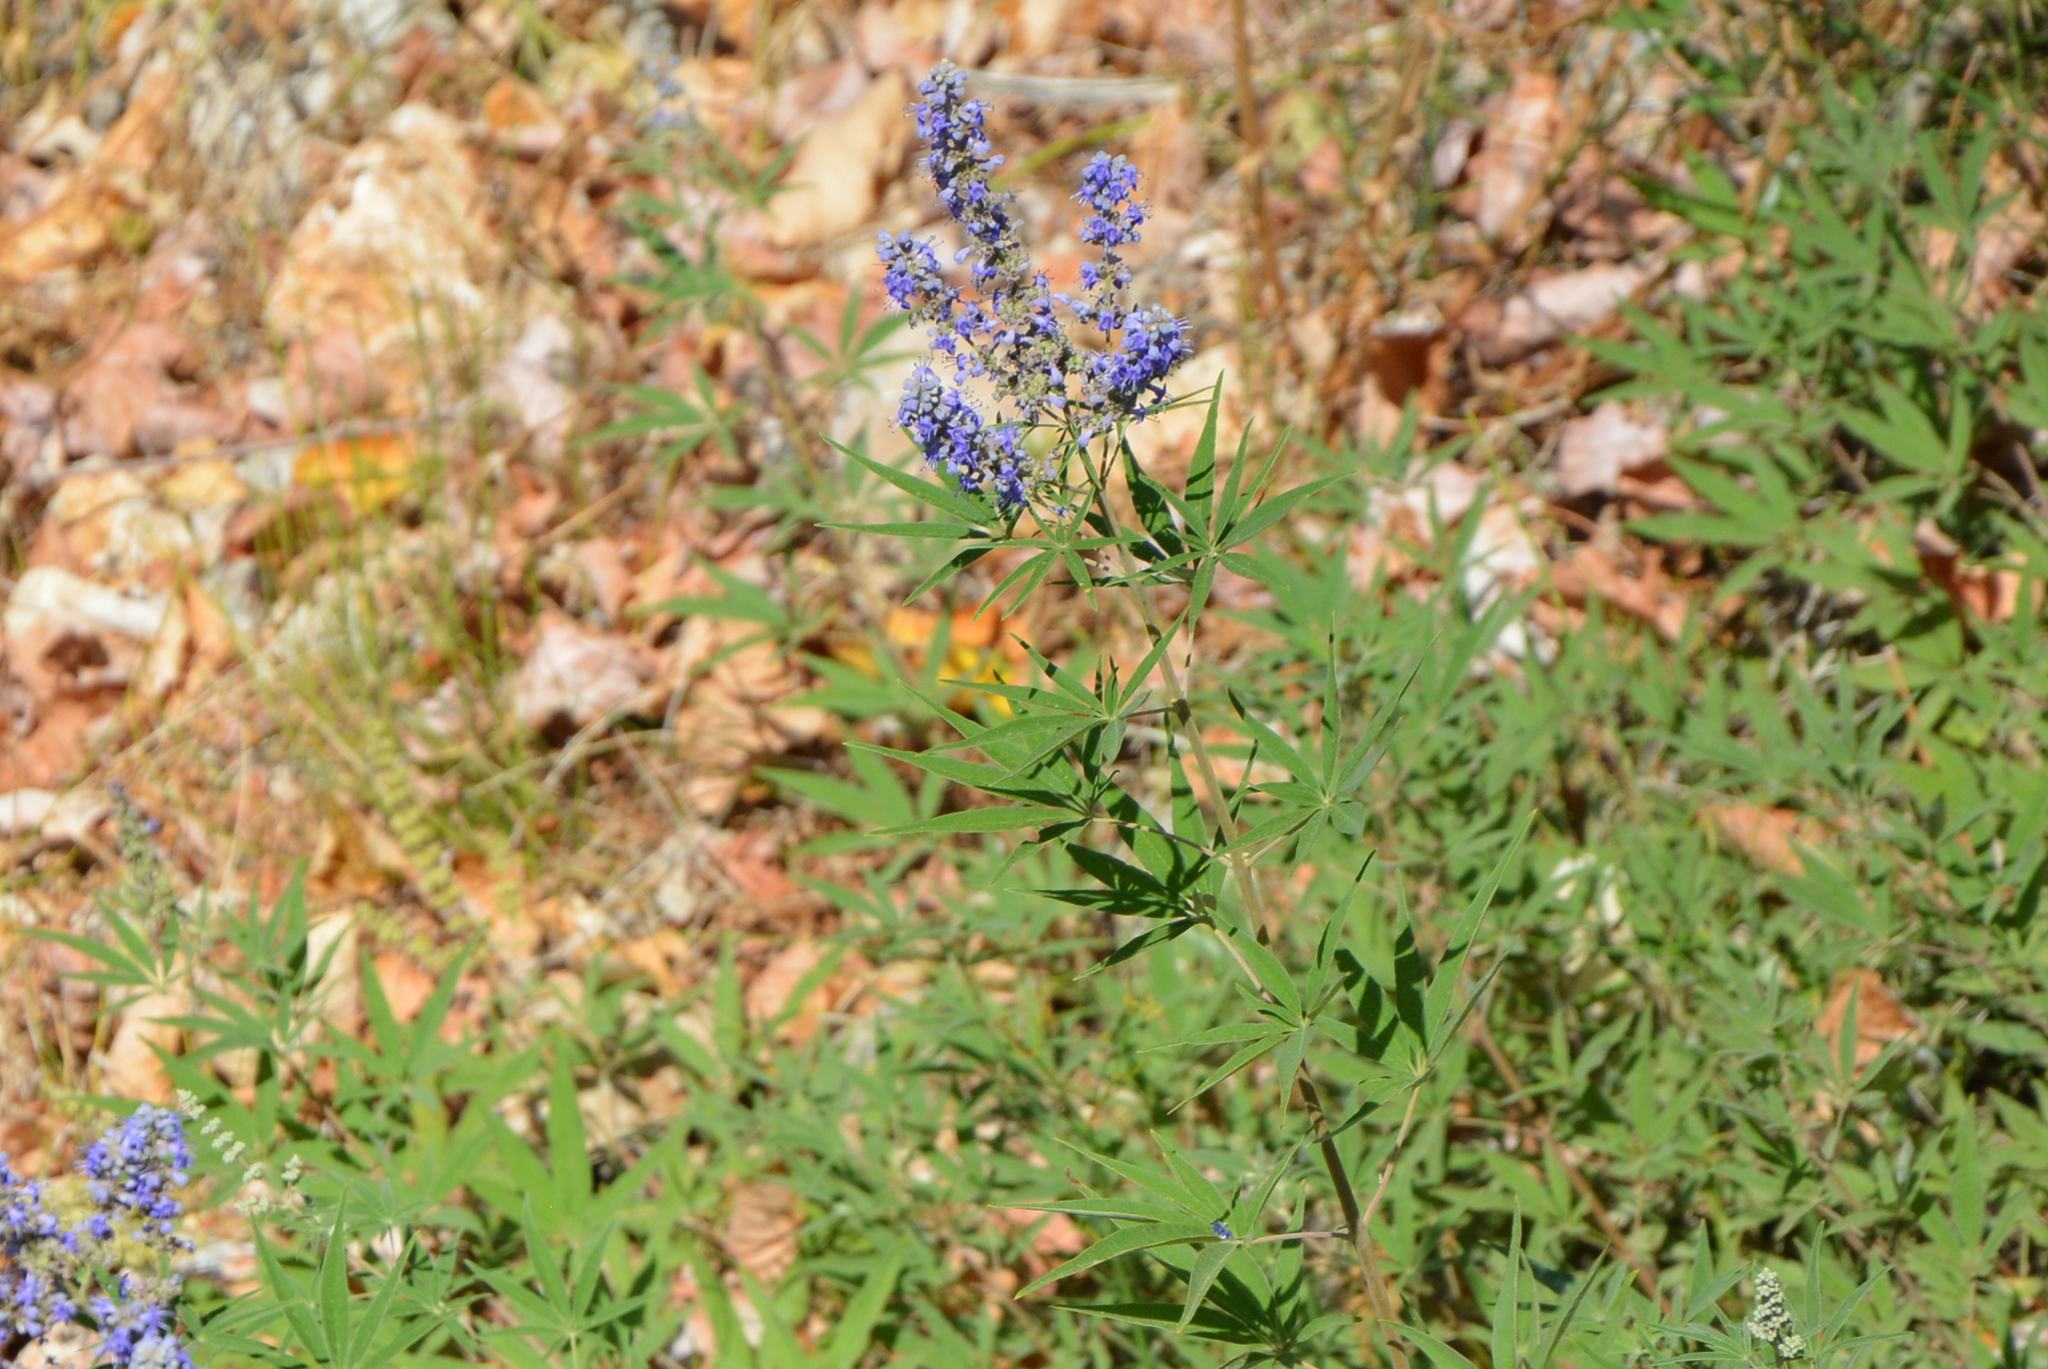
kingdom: Plantae
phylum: Tracheophyta
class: Magnoliopsida
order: Lamiales
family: Lamiaceae
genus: Vitex
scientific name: Vitex agnus-castus
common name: Chasteberry
